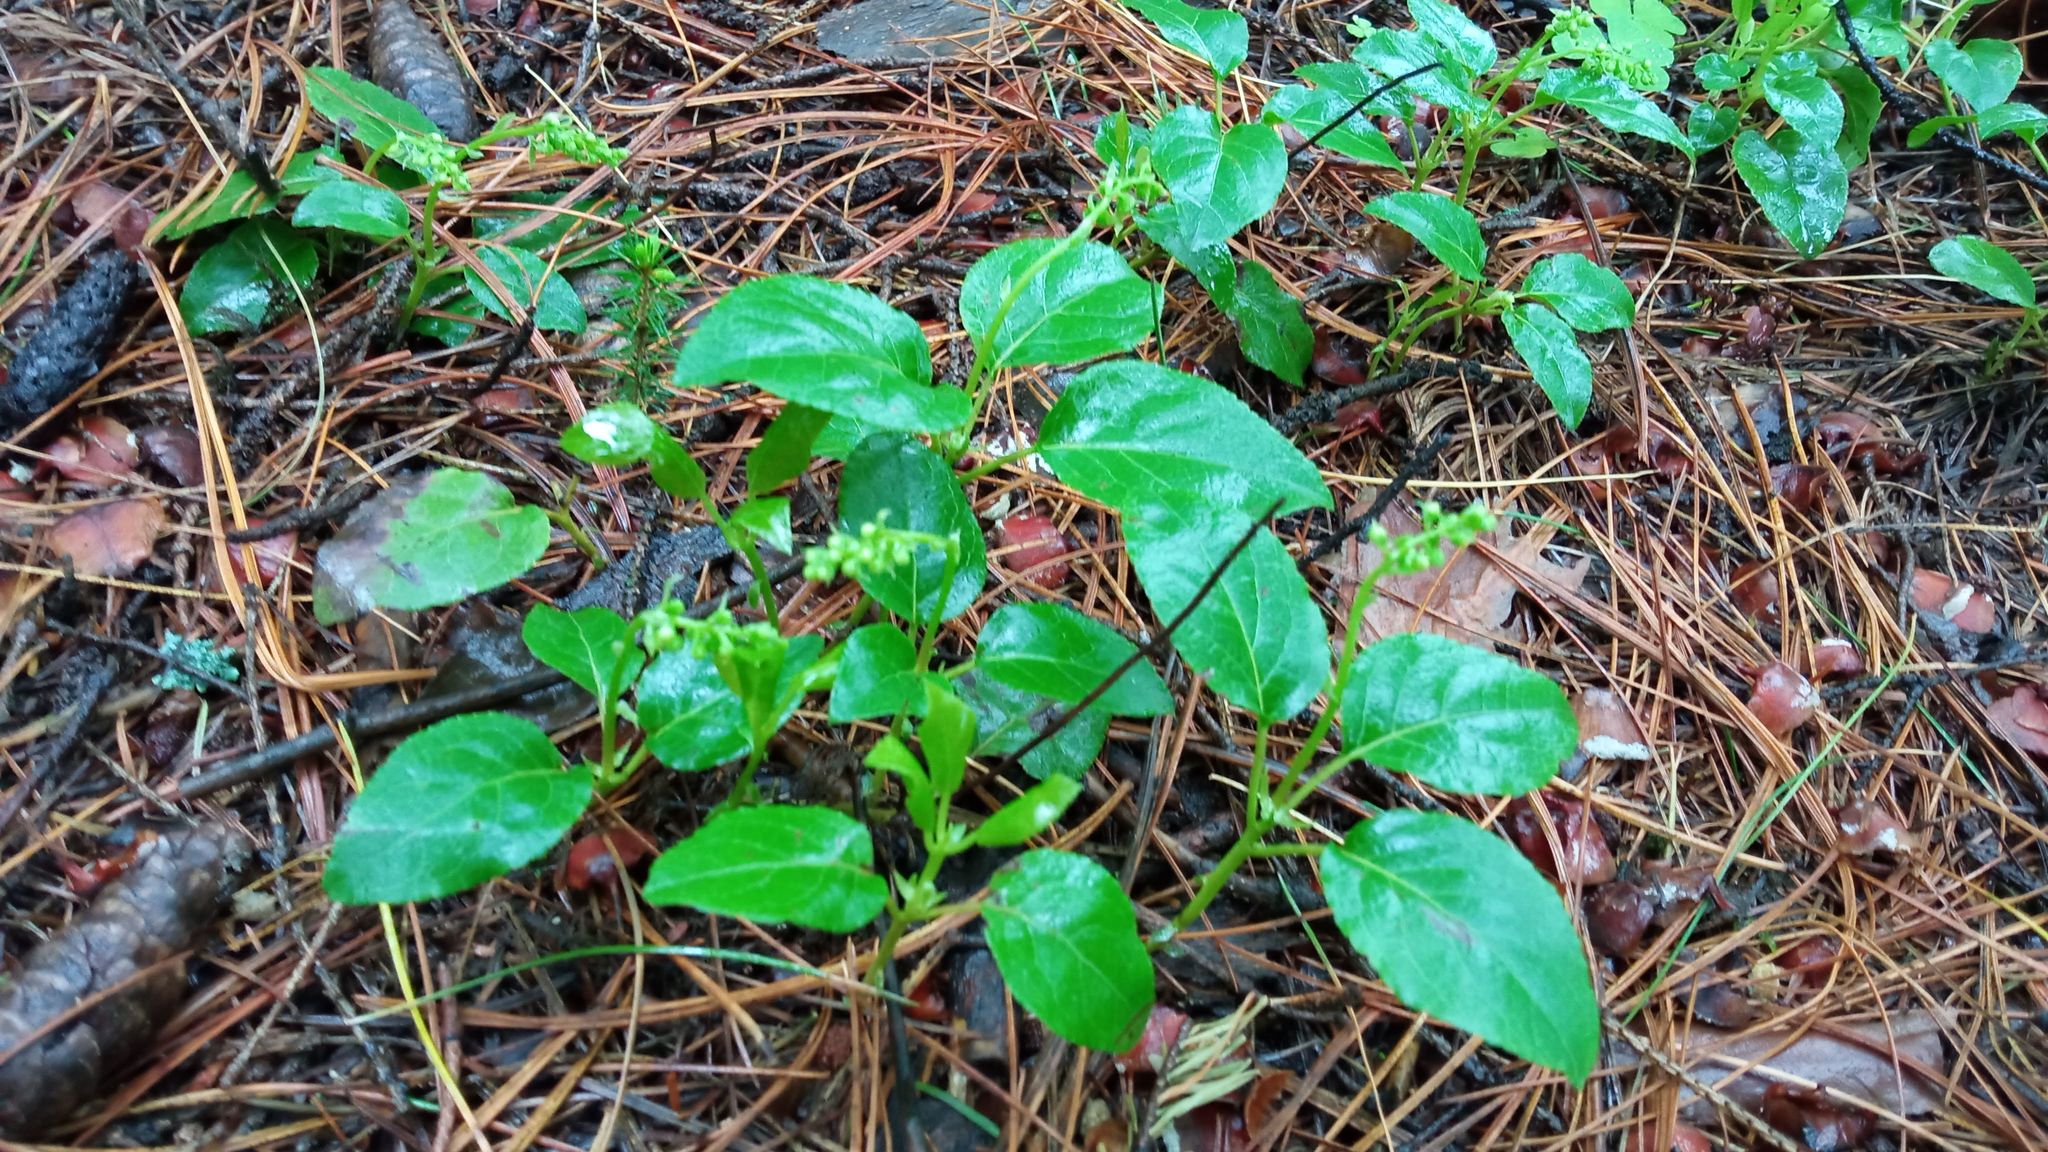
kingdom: Plantae
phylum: Tracheophyta
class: Magnoliopsida
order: Ericales
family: Ericaceae
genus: Orthilia
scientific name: Orthilia secunda
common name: One-sided orthilia
